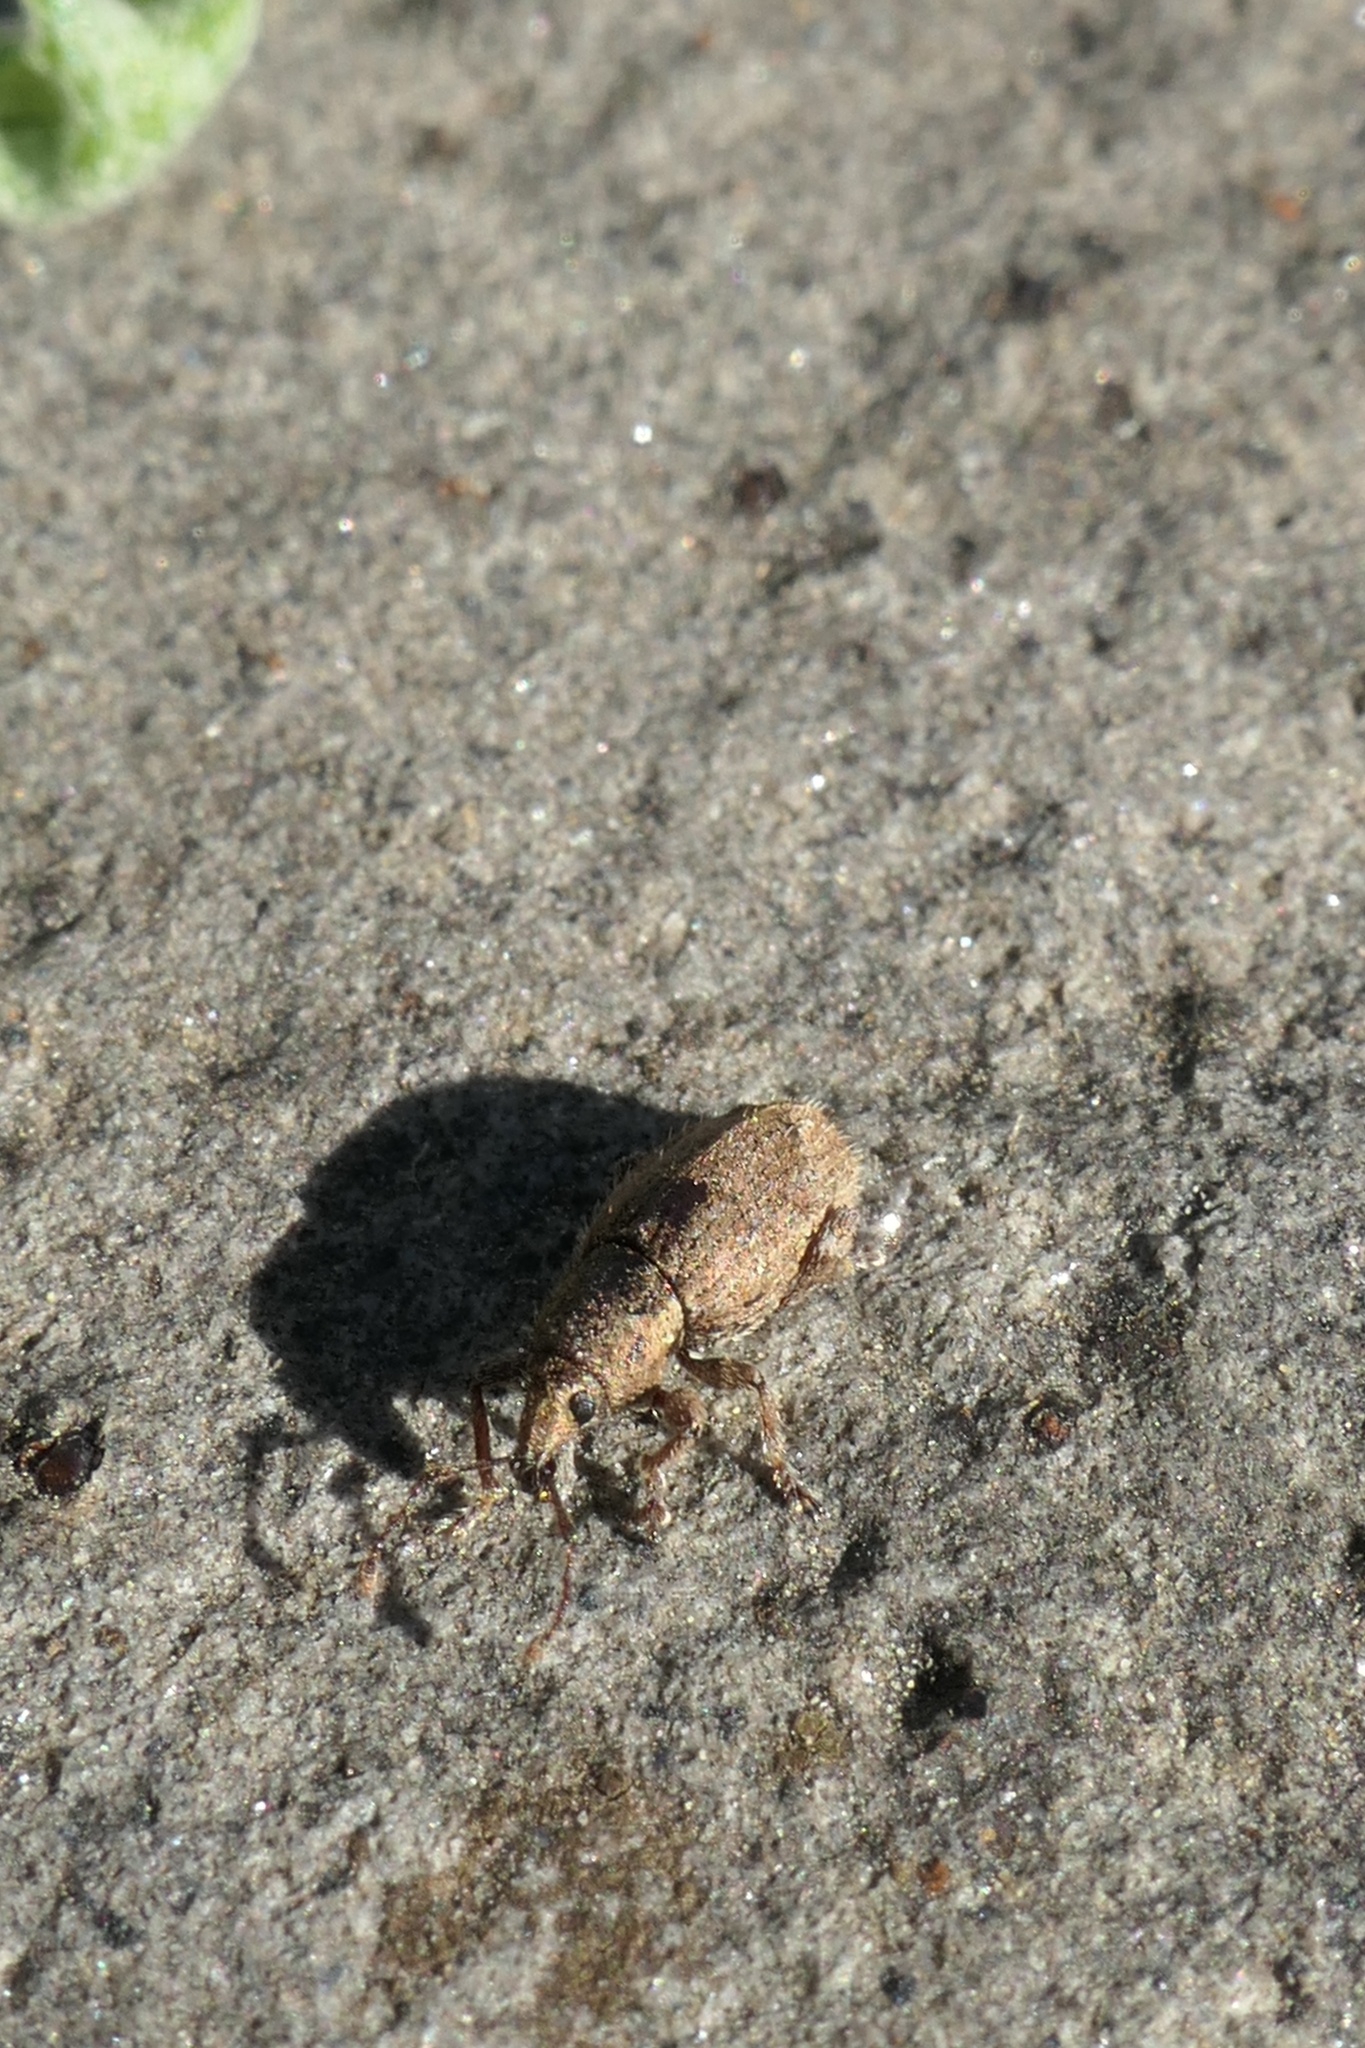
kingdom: Animalia
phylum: Arthropoda
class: Insecta
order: Coleoptera
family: Curculionidae
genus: Chalepistes
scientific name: Chalepistes spermophilus
